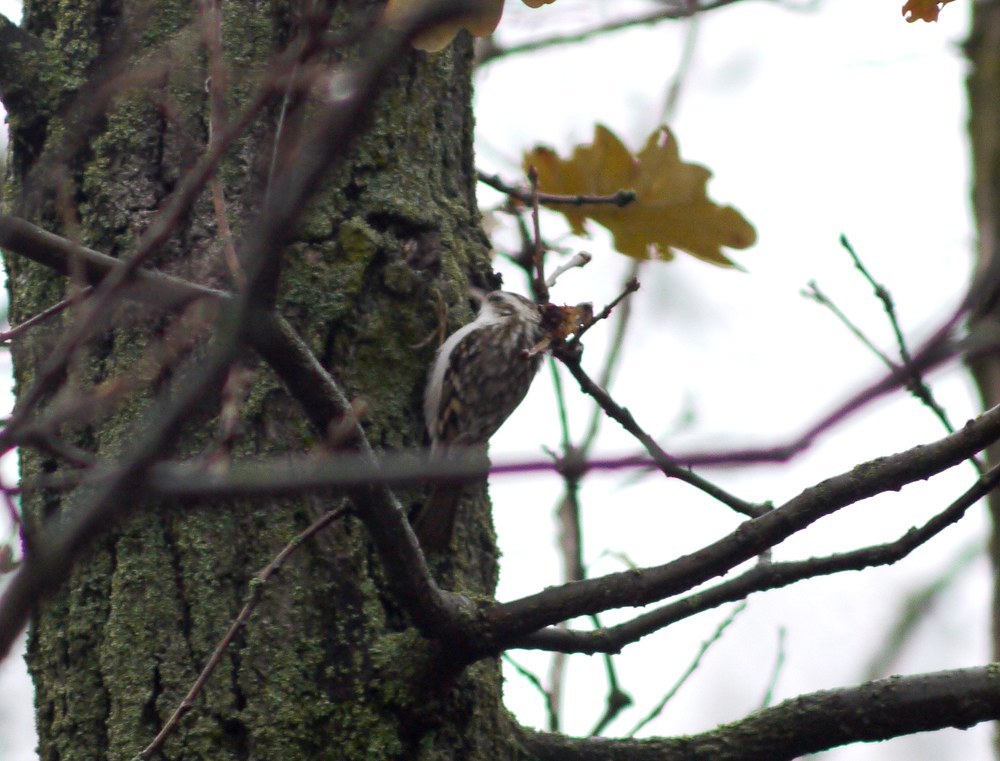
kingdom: Animalia
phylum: Chordata
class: Aves
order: Passeriformes
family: Certhiidae
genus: Certhia
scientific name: Certhia familiaris
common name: Eurasian treecreeper
